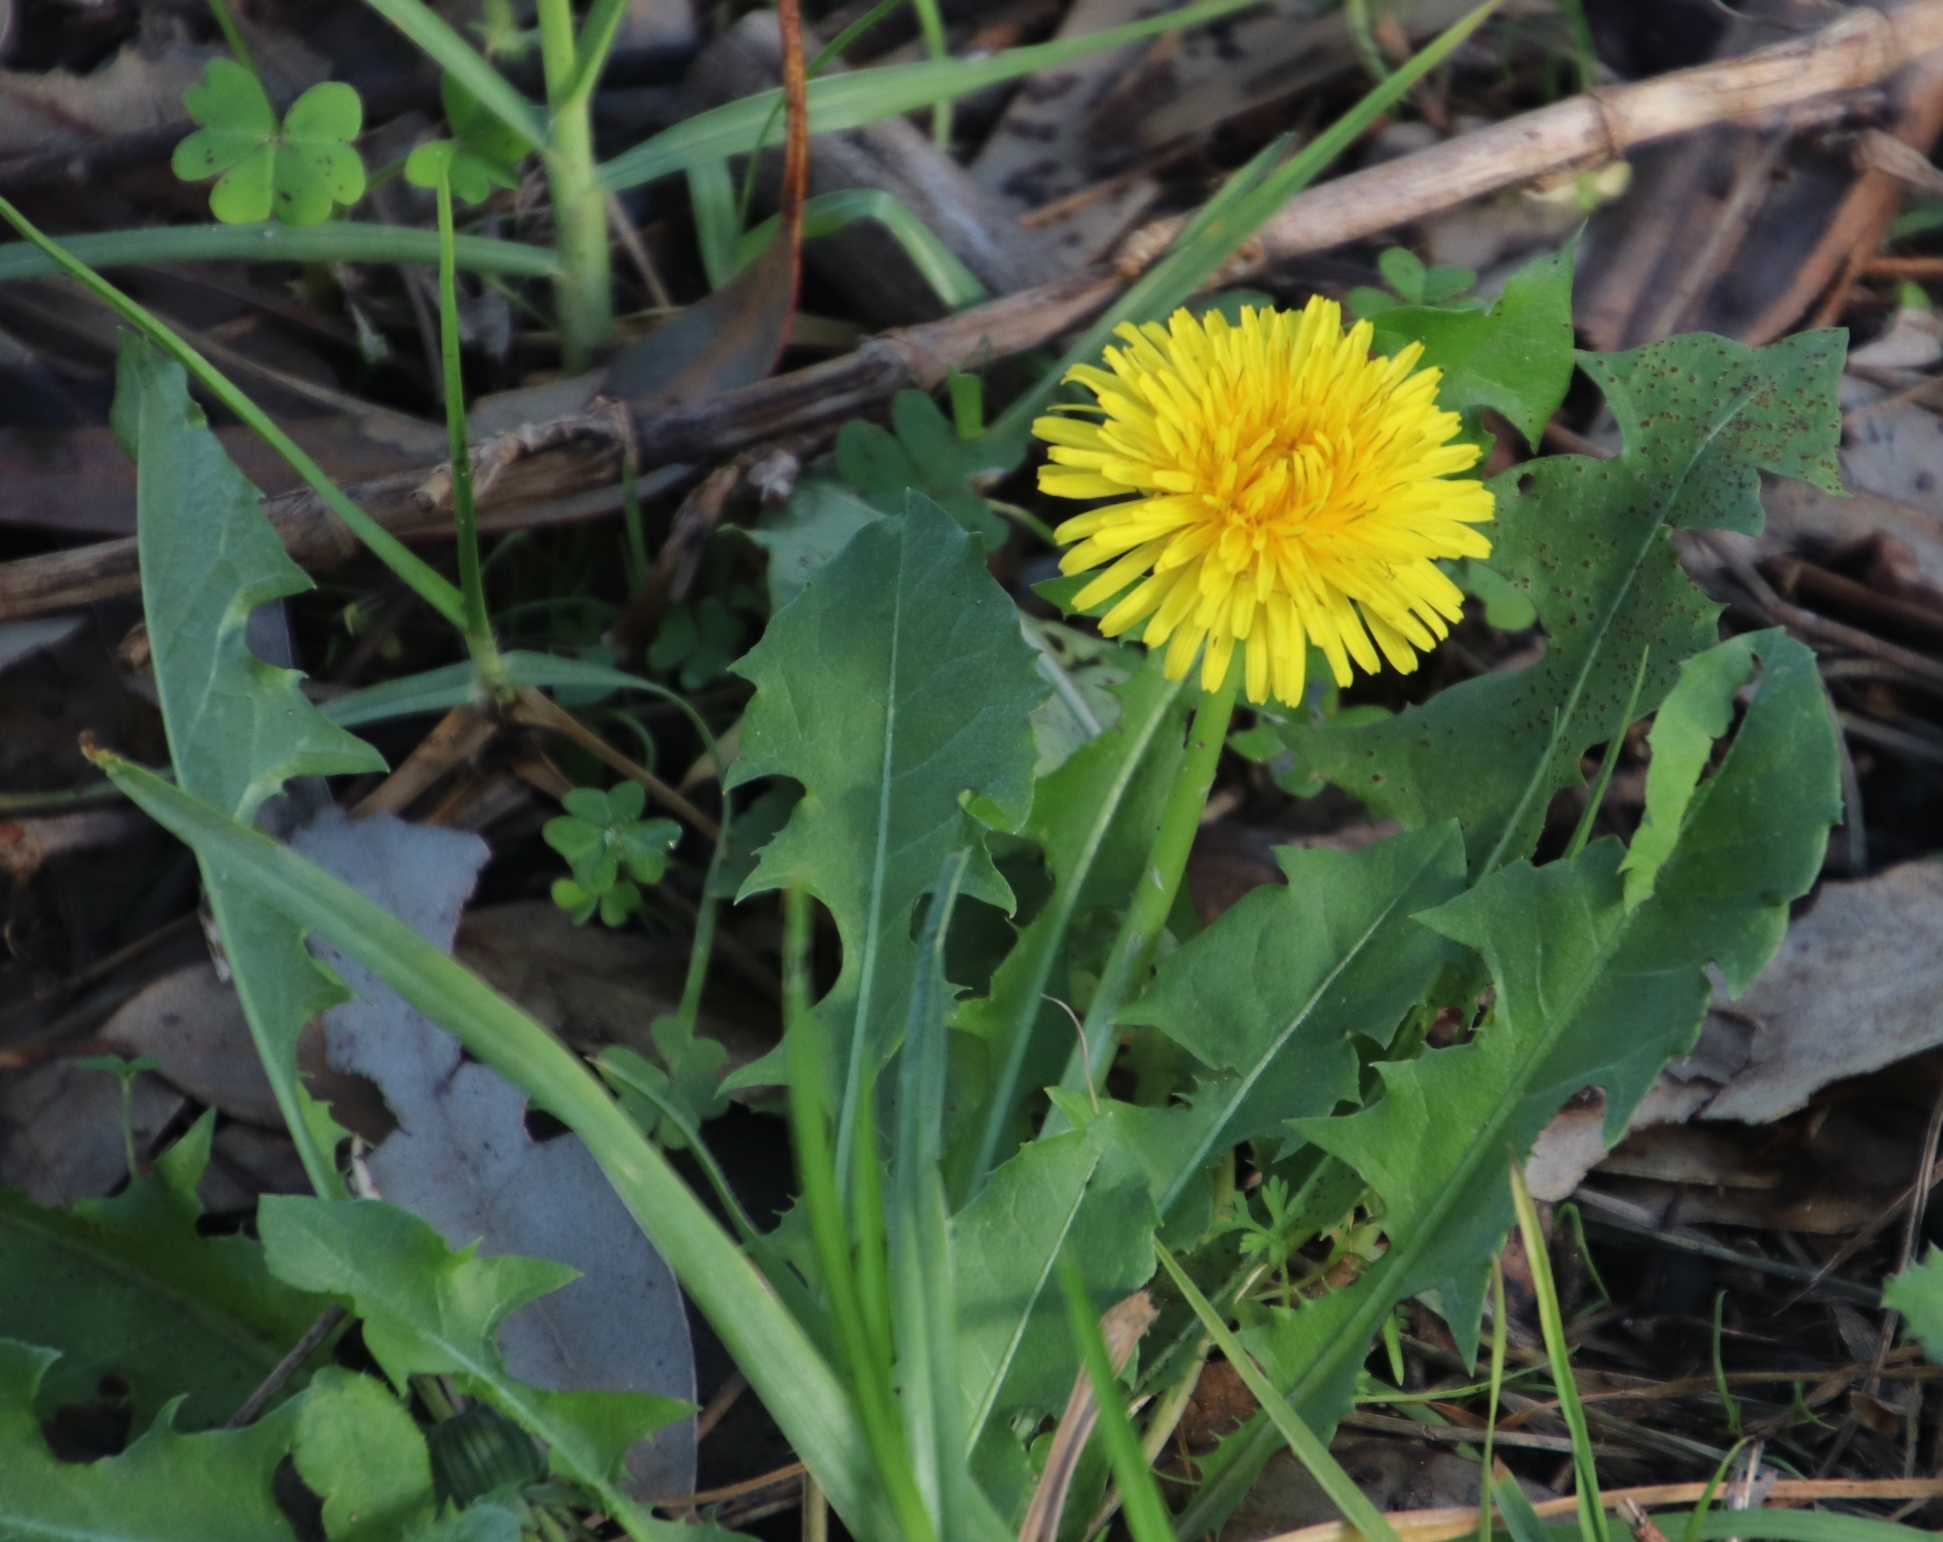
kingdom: Plantae
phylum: Tracheophyta
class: Magnoliopsida
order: Asterales
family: Asteraceae
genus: Taraxacum
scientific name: Taraxacum officinale
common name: Common dandelion
